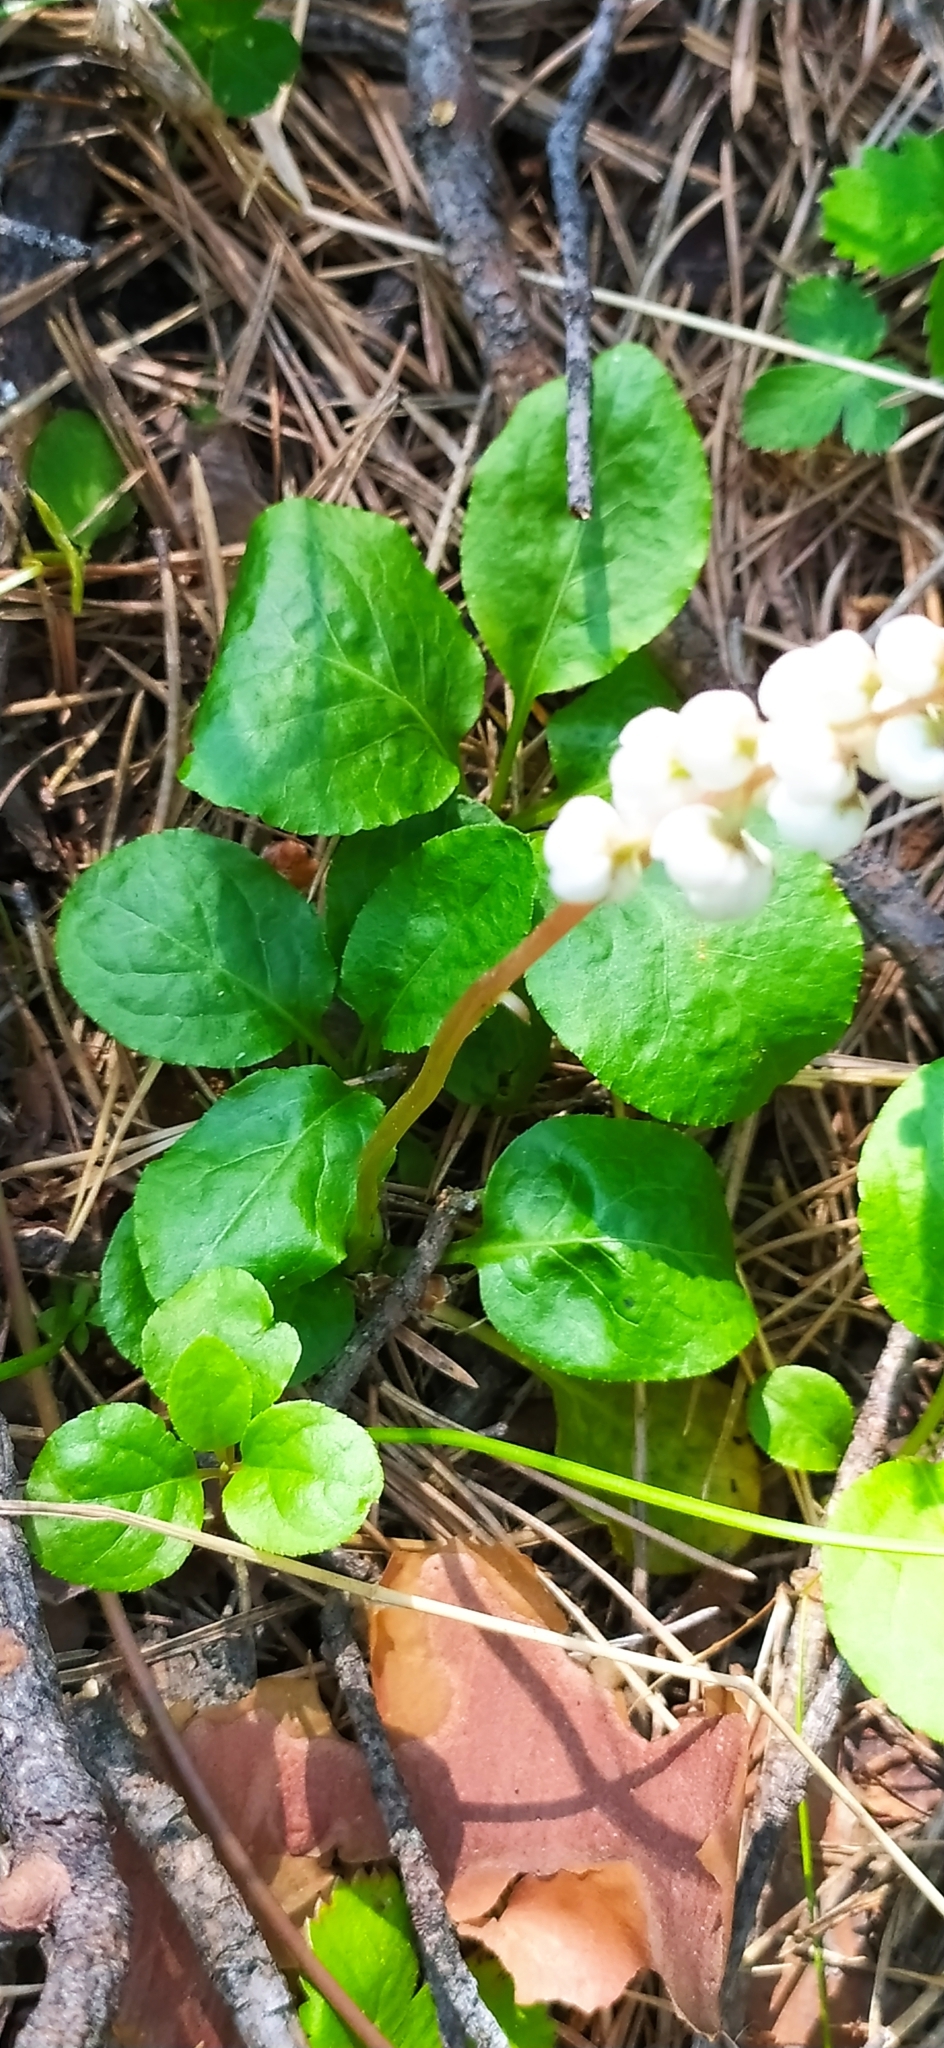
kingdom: Plantae
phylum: Tracheophyta
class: Magnoliopsida
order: Ericales
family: Ericaceae
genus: Pyrola
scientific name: Pyrola minor
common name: Common wintergreen
